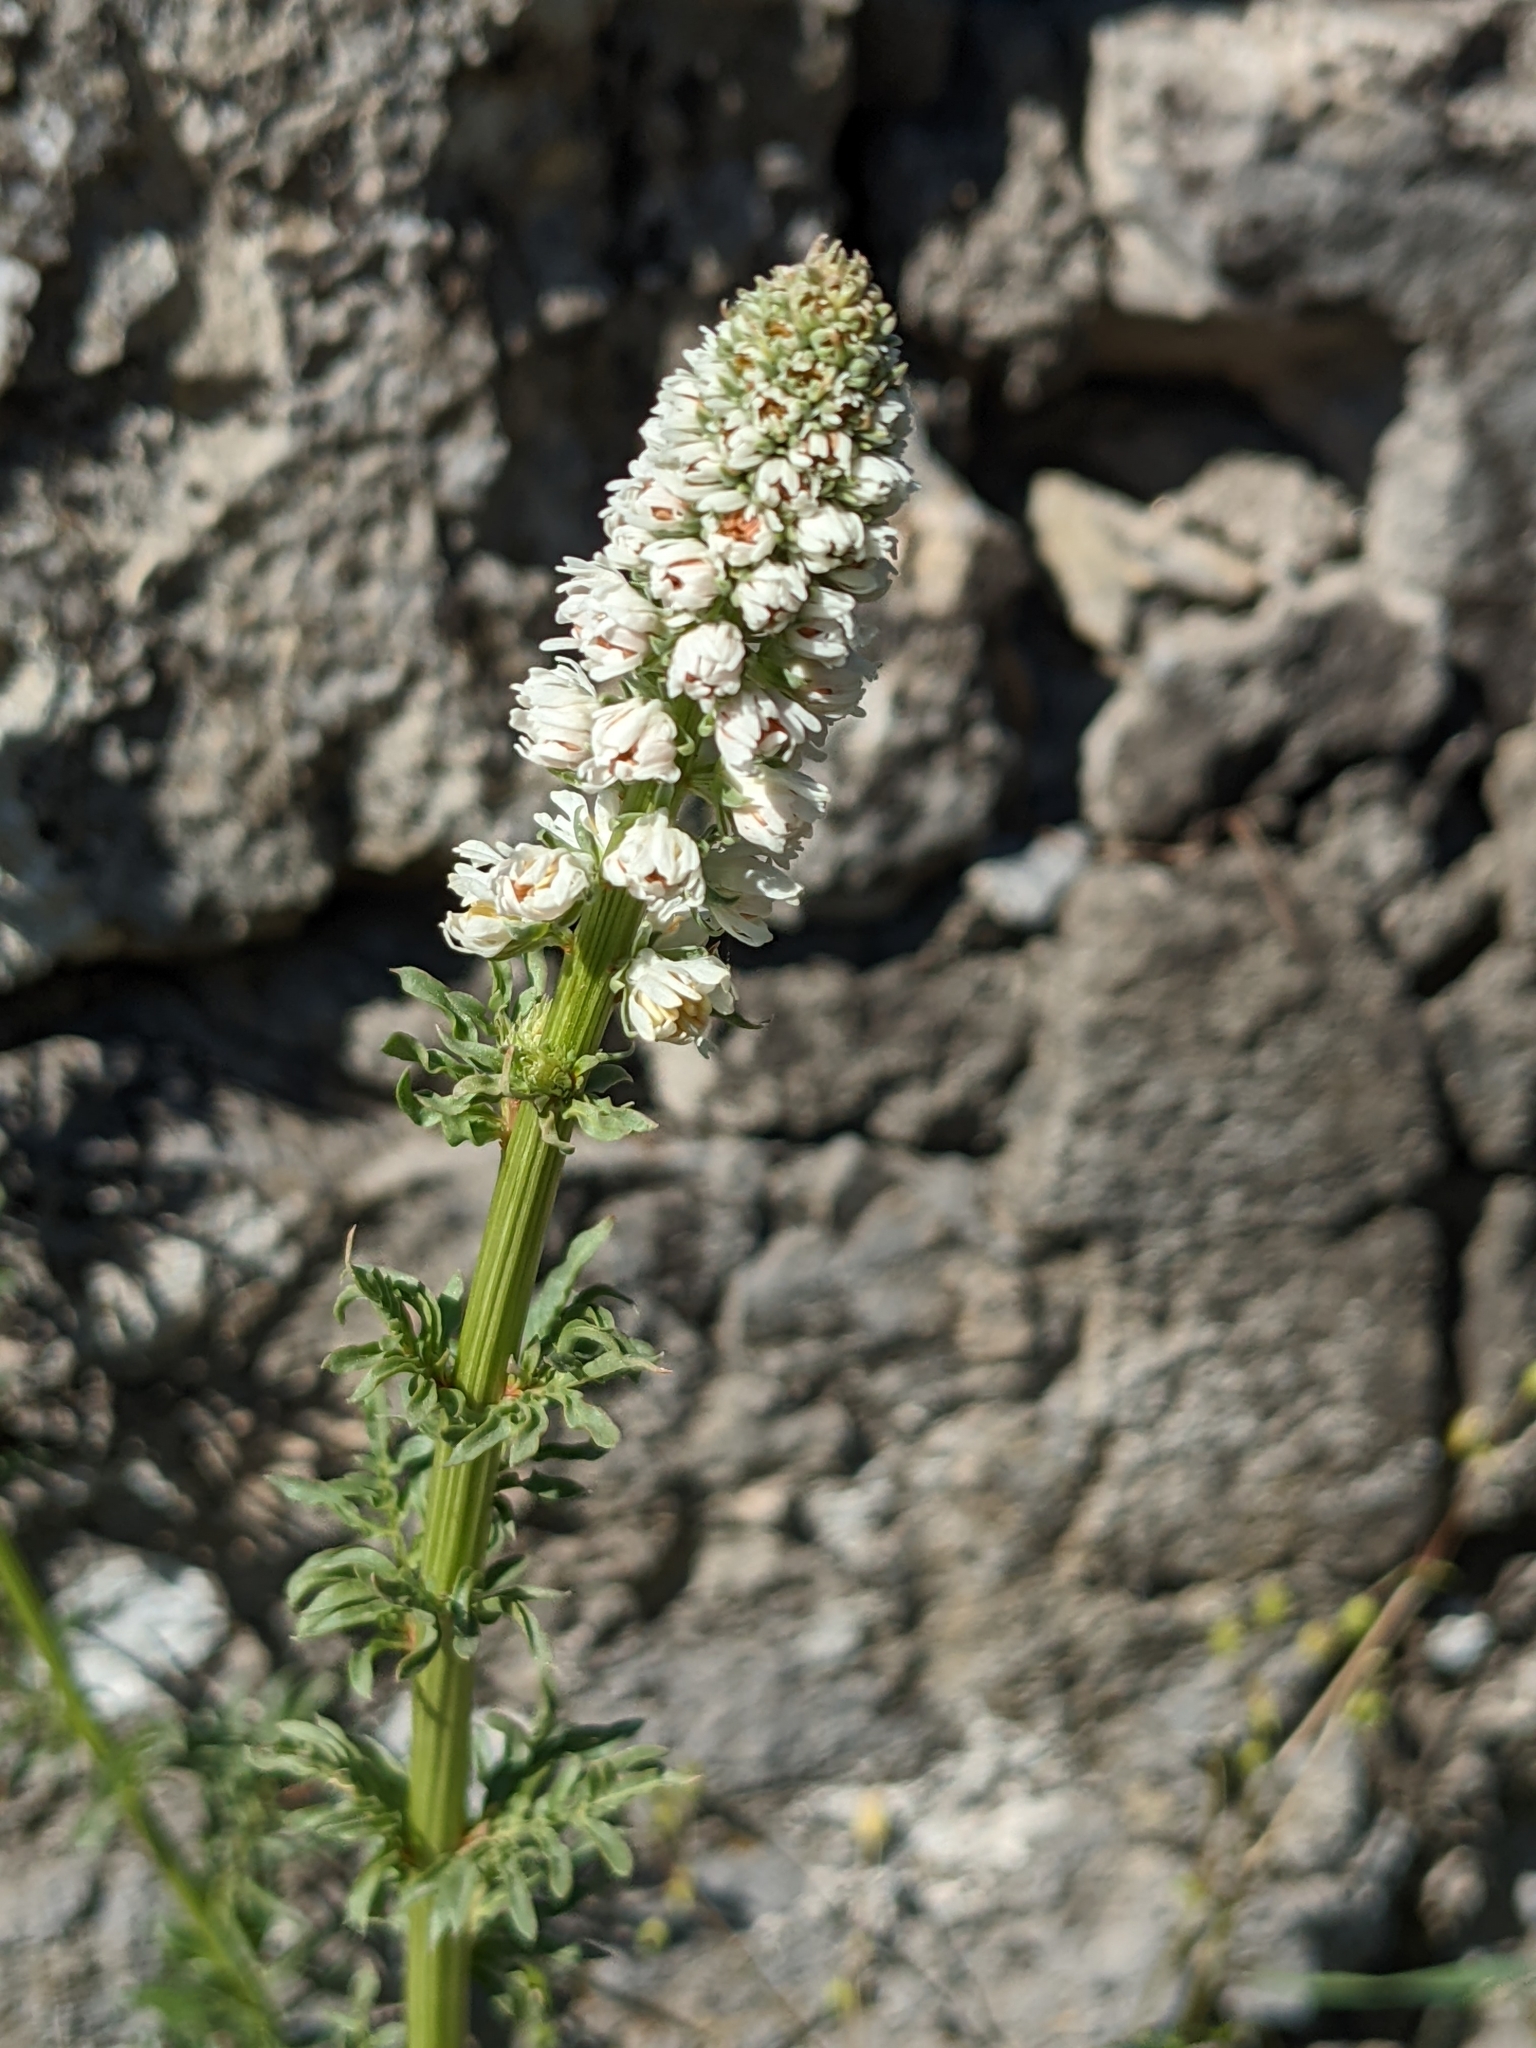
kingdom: Plantae
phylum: Tracheophyta
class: Magnoliopsida
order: Brassicales
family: Resedaceae
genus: Reseda
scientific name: Reseda alba
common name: White mignonette
